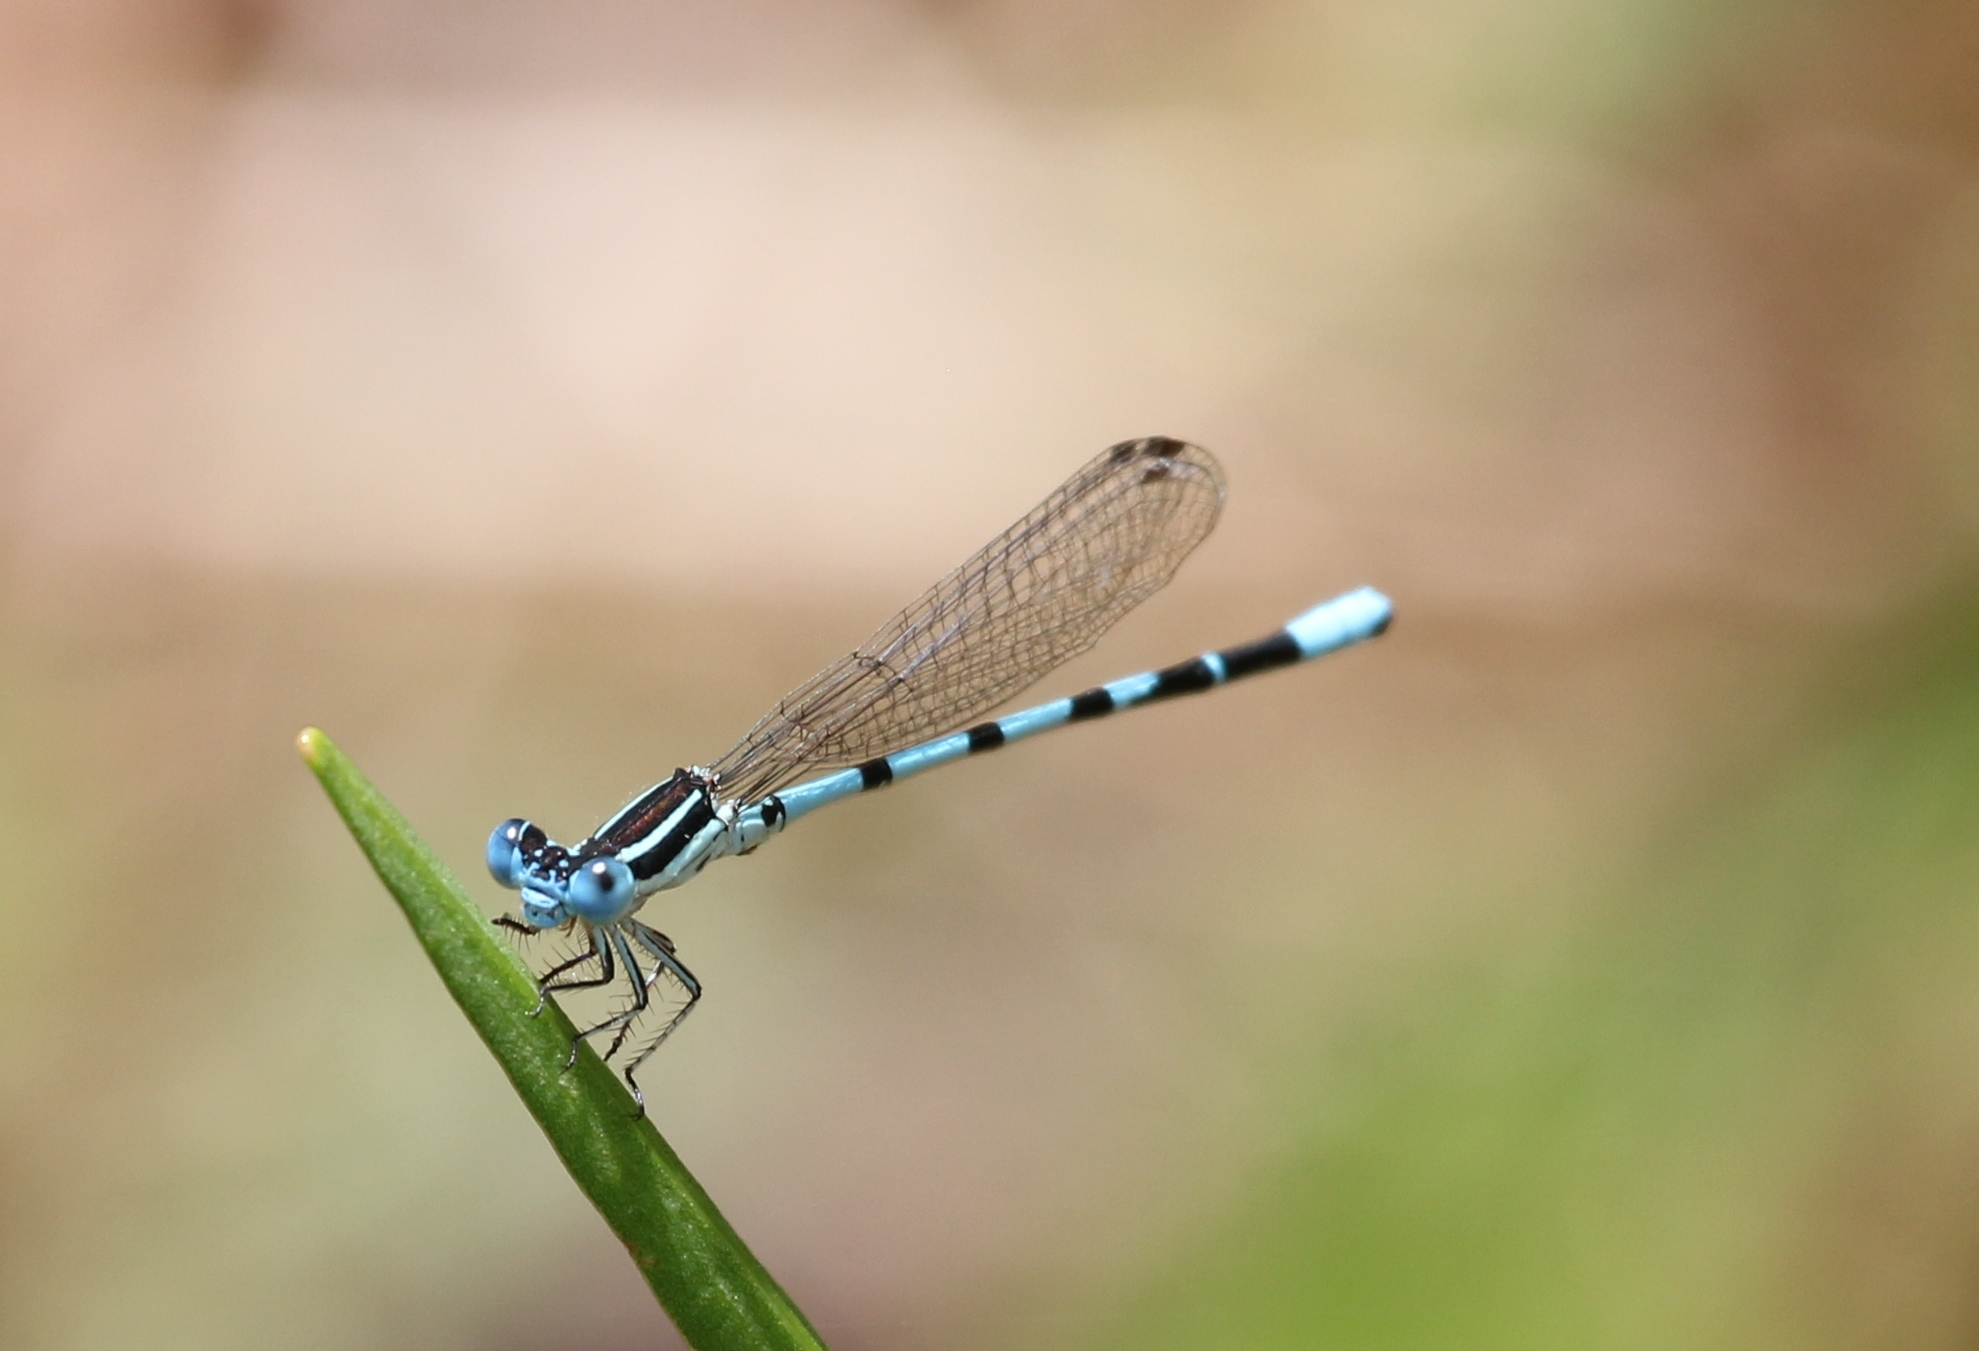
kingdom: Animalia
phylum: Arthropoda
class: Insecta
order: Odonata
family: Coenagrionidae
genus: Argia
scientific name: Argia bipunctulata
